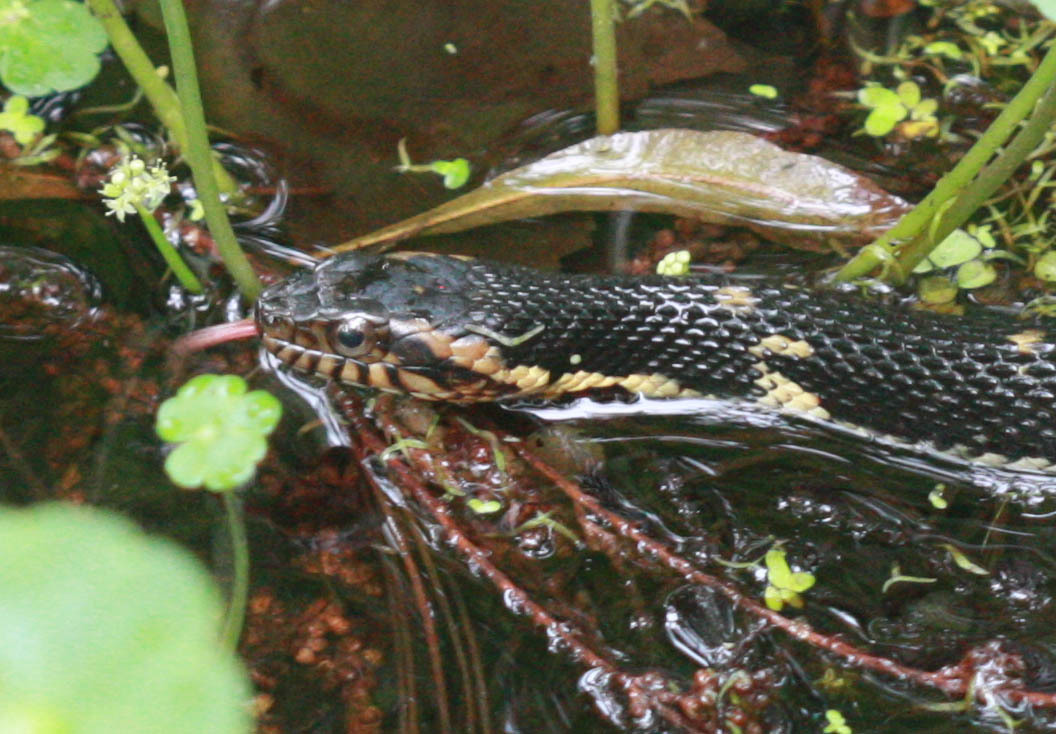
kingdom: Animalia
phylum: Chordata
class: Squamata
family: Colubridae
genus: Nerodia
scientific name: Nerodia fasciata
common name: Southern water snake
